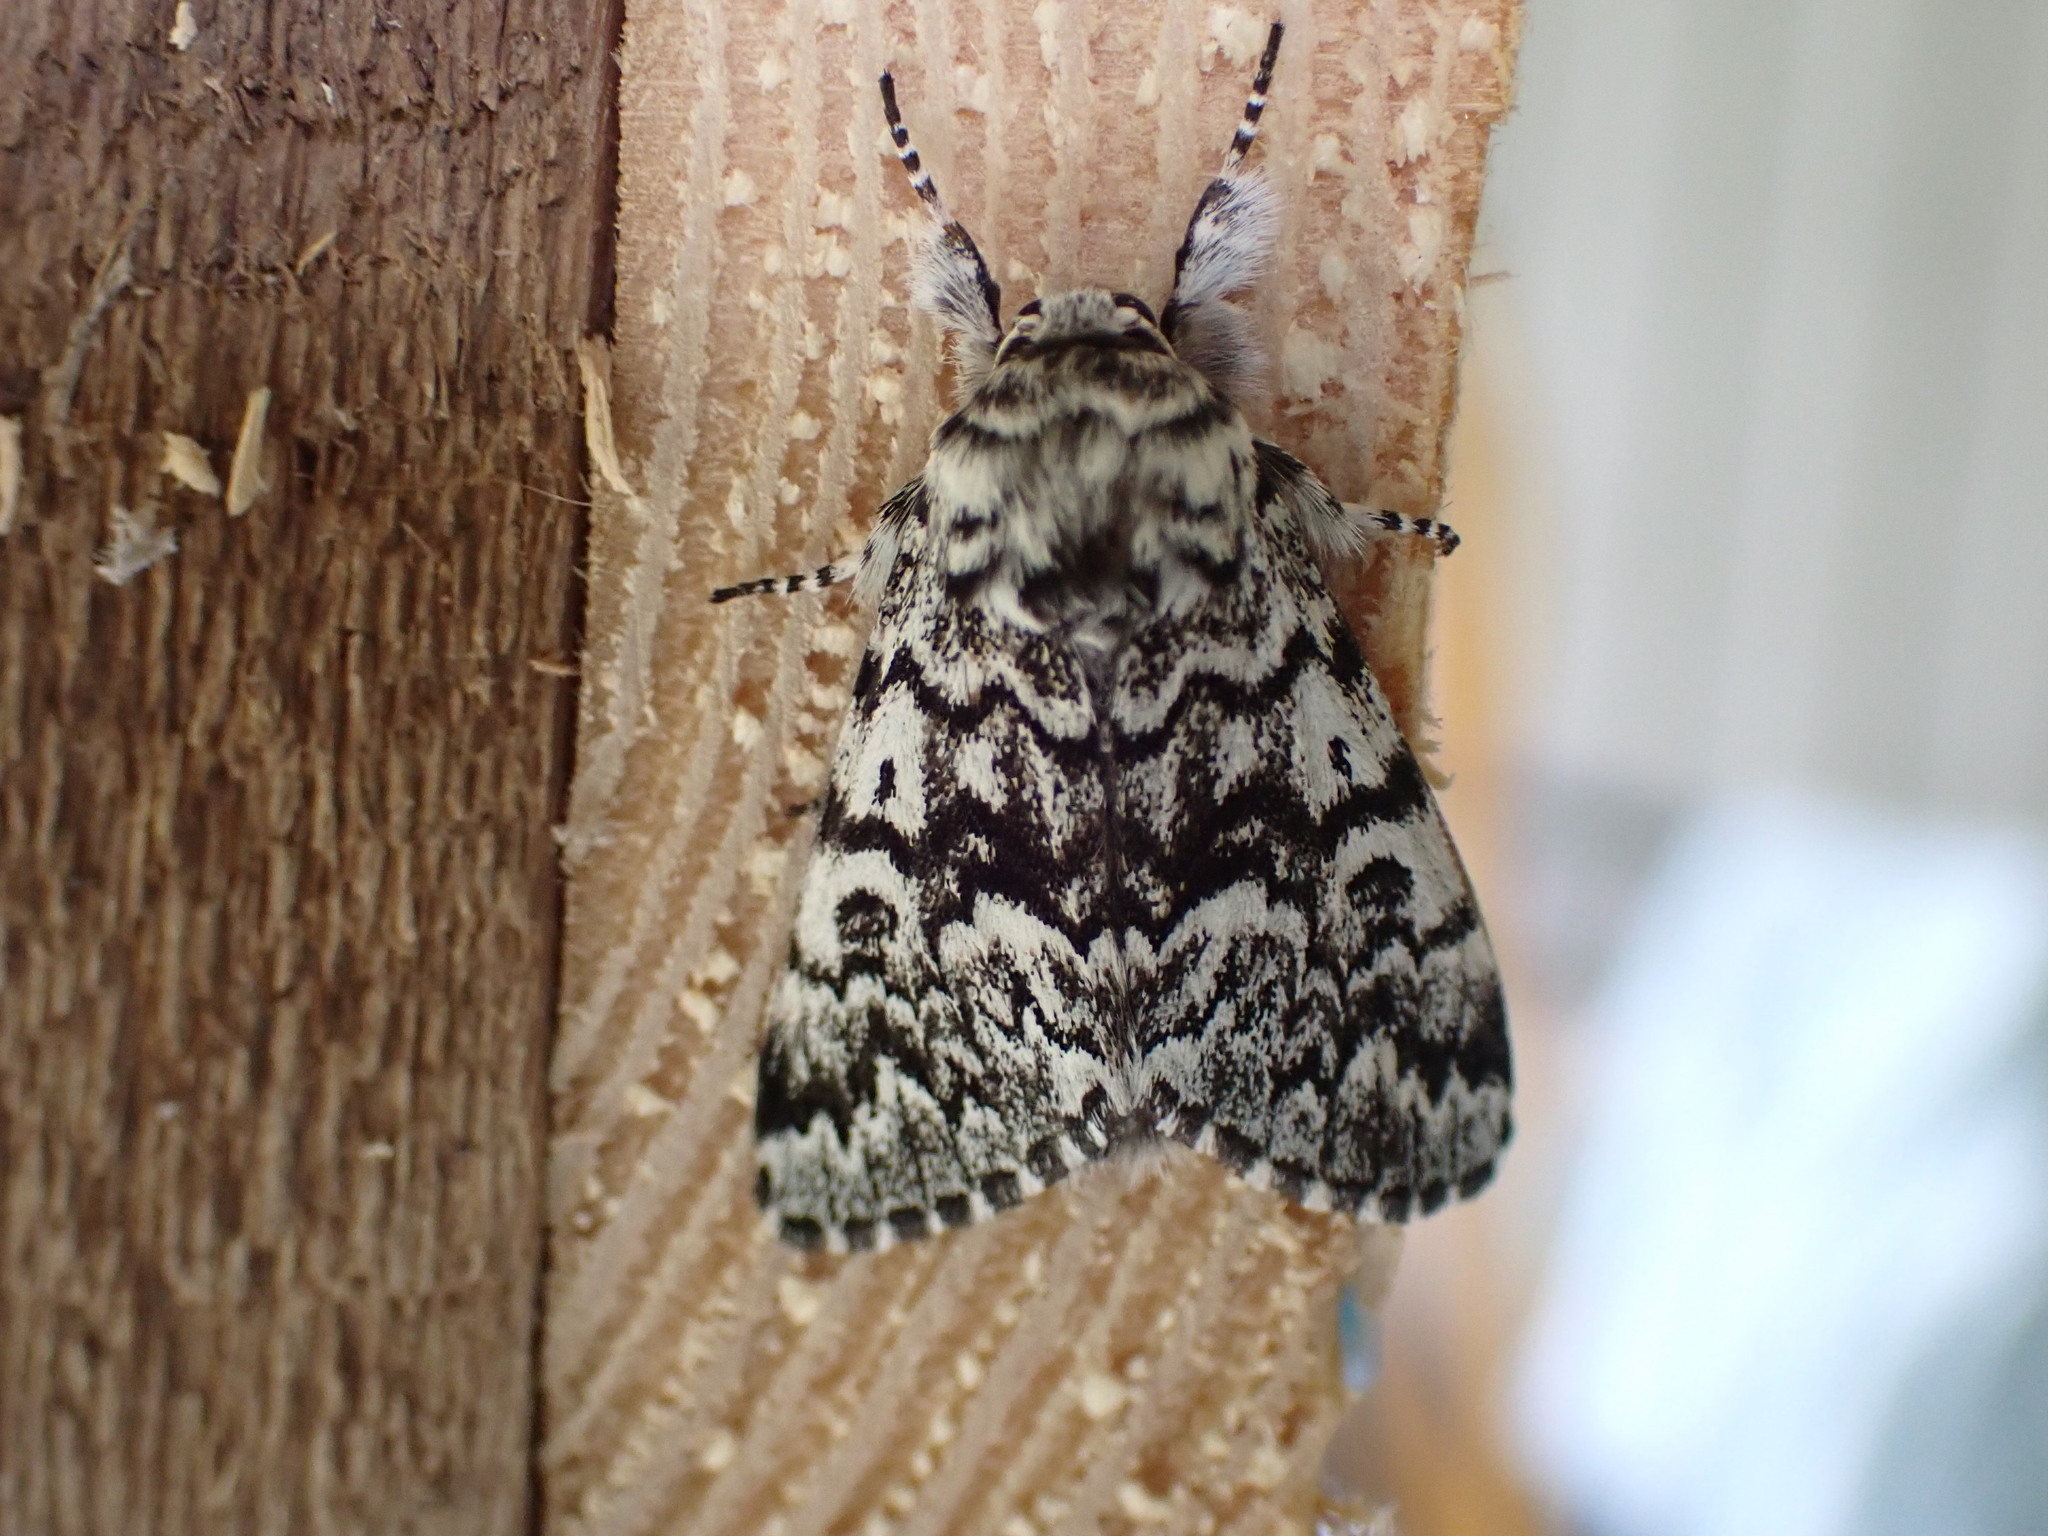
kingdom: Animalia
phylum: Arthropoda
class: Insecta
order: Lepidoptera
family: Noctuidae
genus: Panthea
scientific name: Panthea acronyctoides
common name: Black zigzag moth
